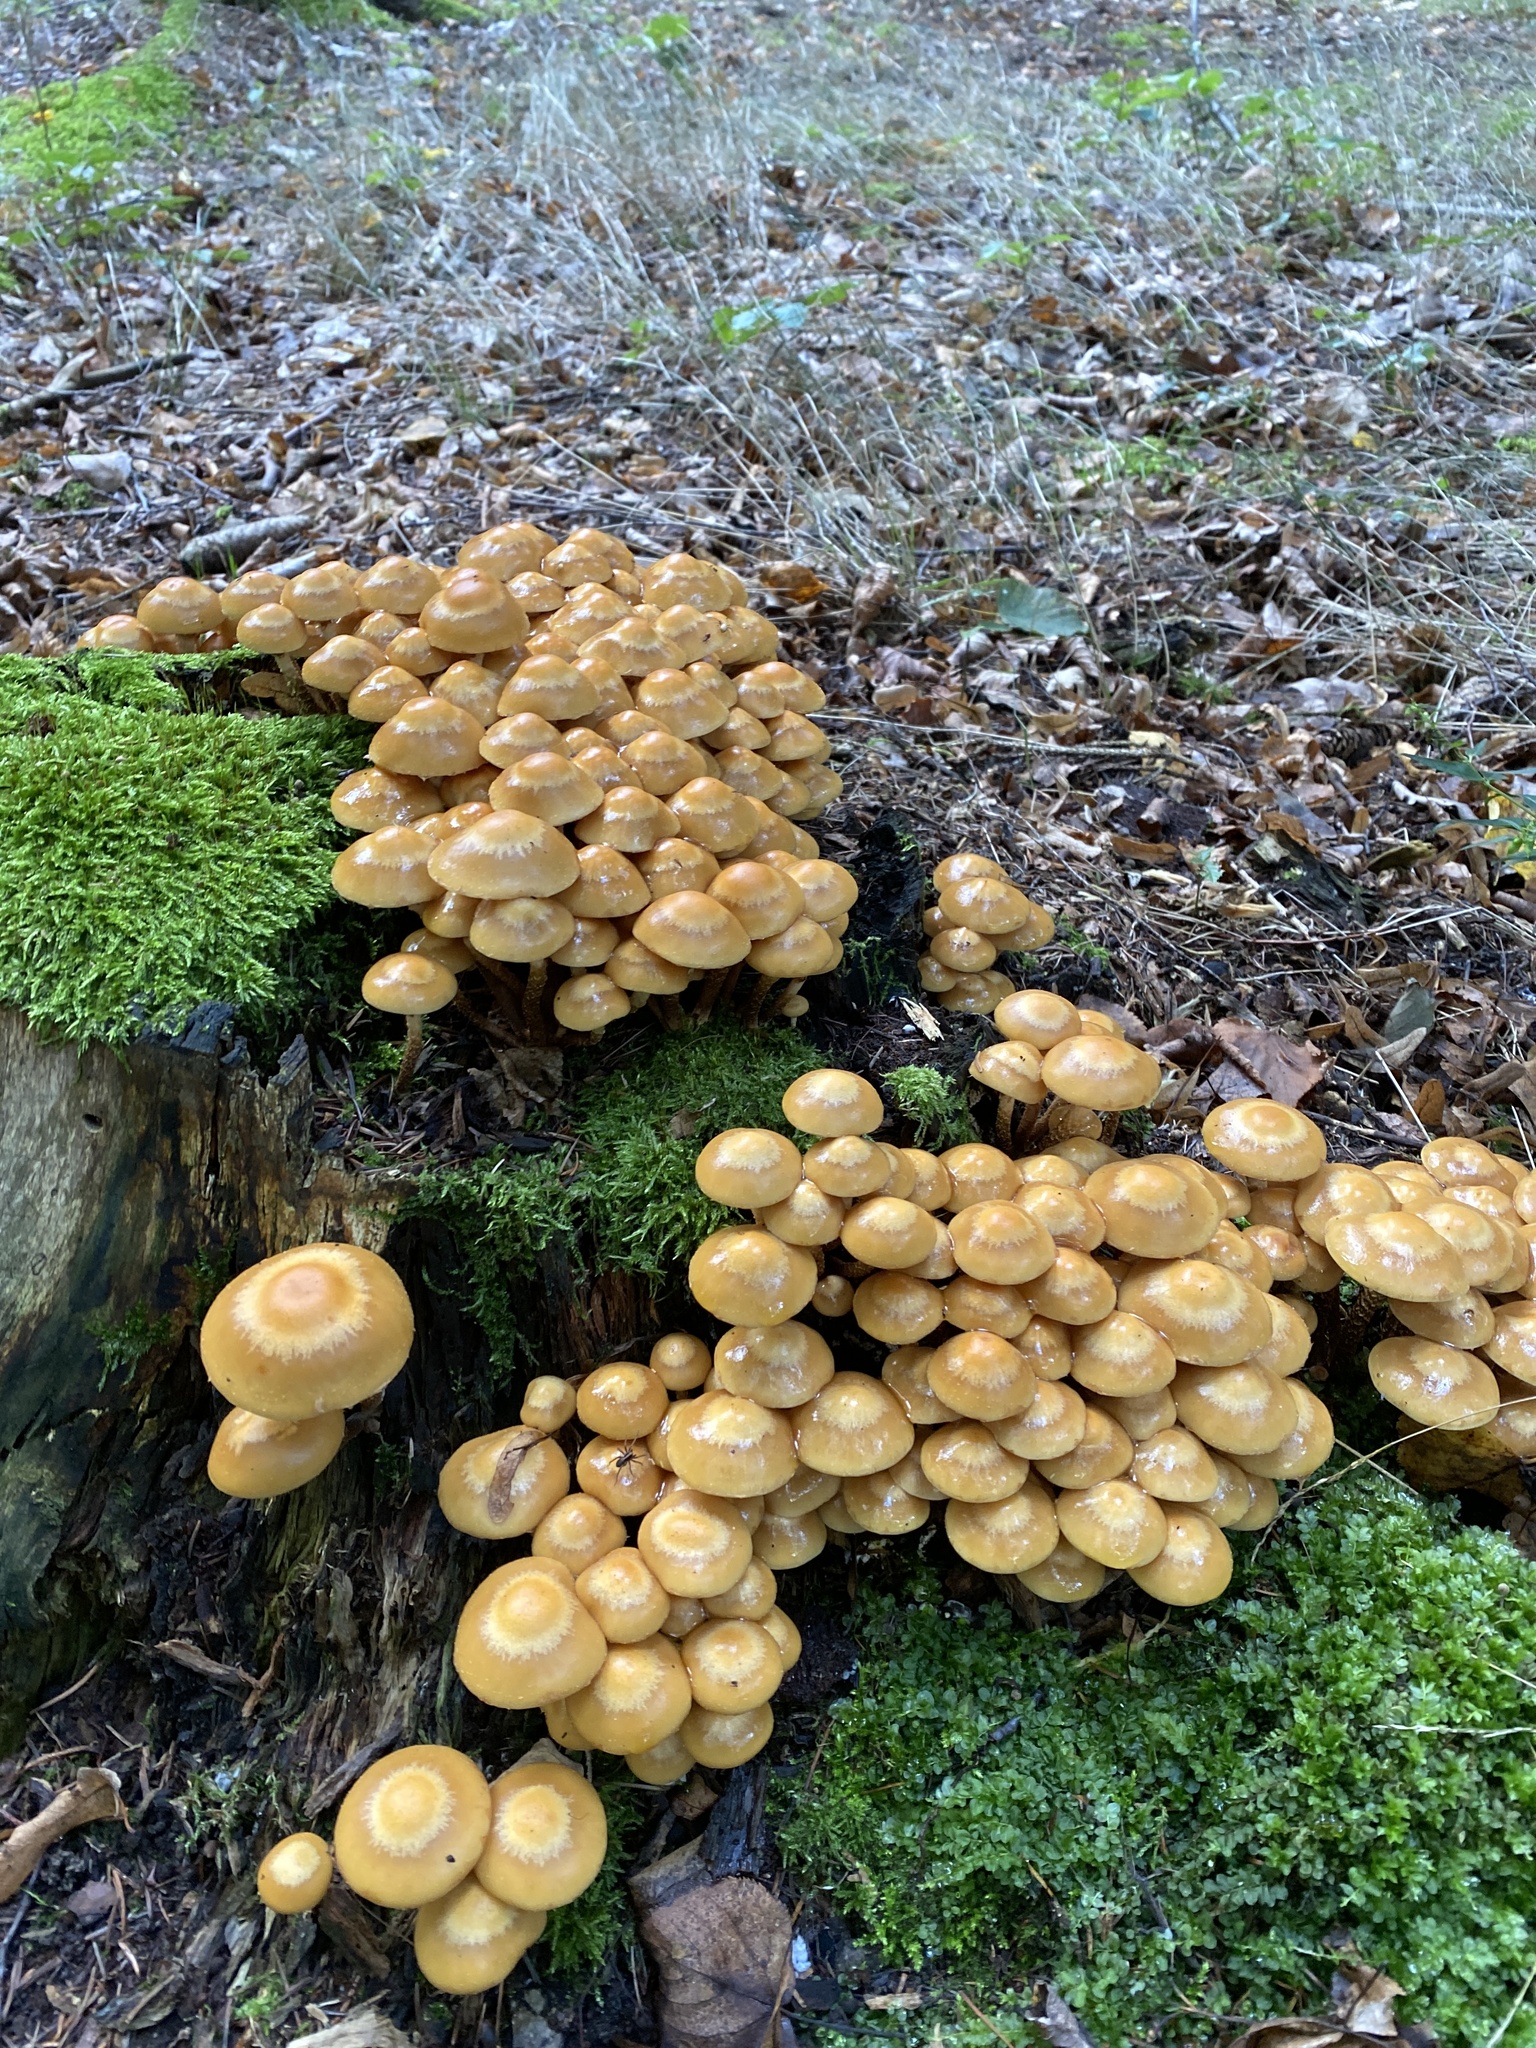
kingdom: Fungi
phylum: Basidiomycota
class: Agaricomycetes
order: Agaricales
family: Strophariaceae
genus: Kuehneromyces
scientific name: Kuehneromyces mutabilis
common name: Sheathed woodtuft
